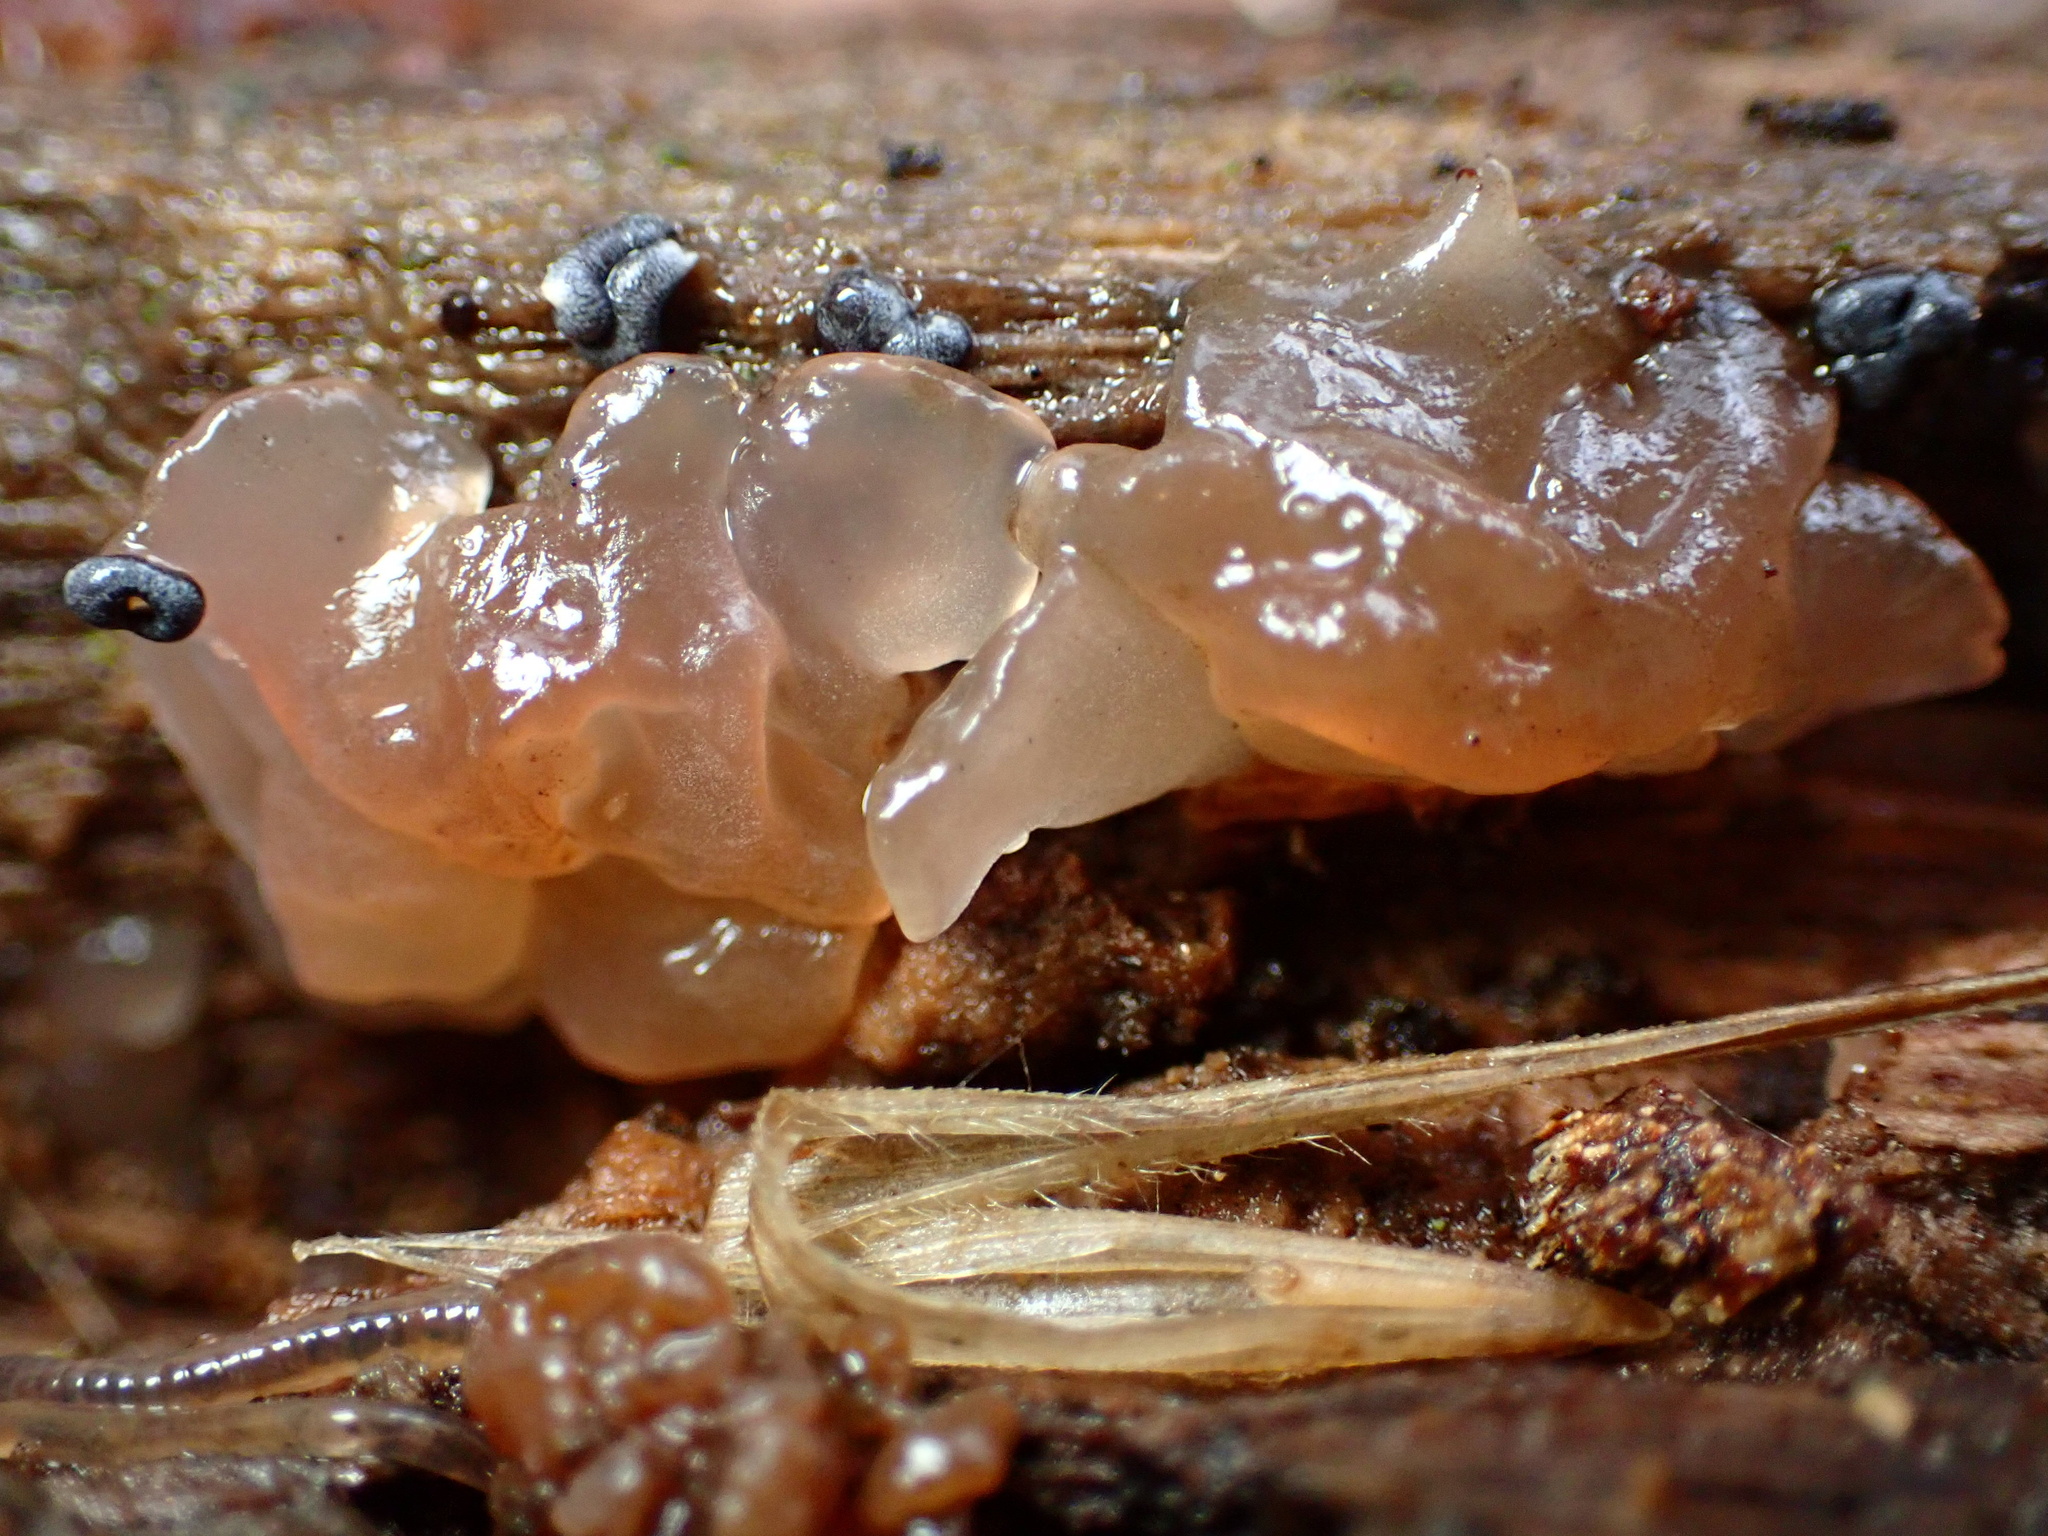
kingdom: Fungi
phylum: Basidiomycota
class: Agaricomycetes
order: Auriculariales
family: Hyaloriaceae
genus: Myxarium
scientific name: Myxarium nucleatum
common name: Crystal brain fungus
